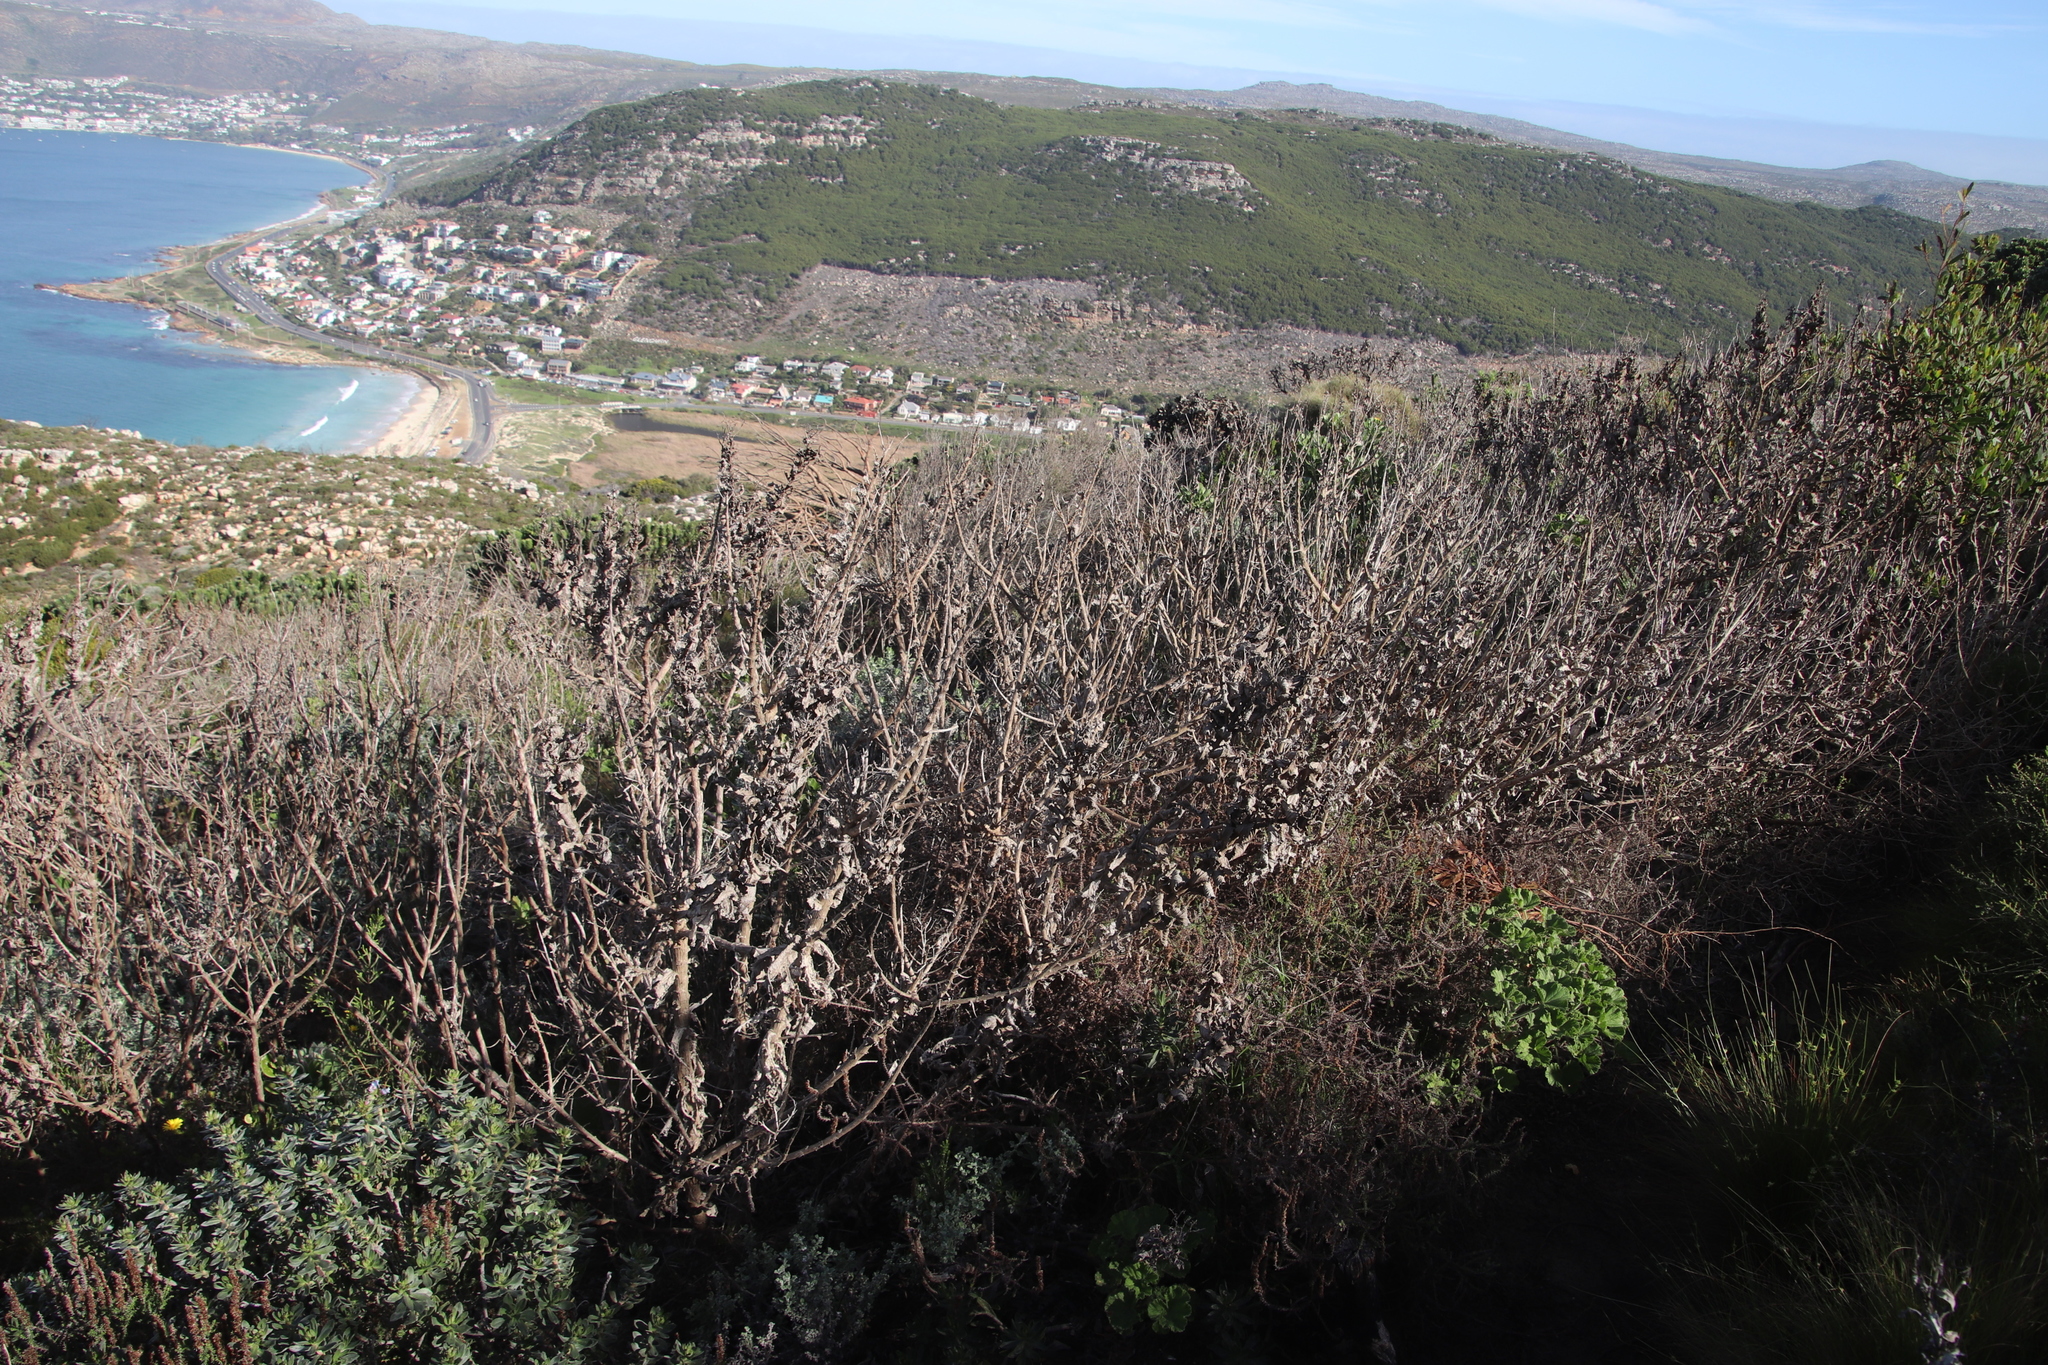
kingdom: Plantae
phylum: Tracheophyta
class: Magnoliopsida
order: Asterales
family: Asteraceae
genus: Senecio
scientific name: Senecio rigidus
